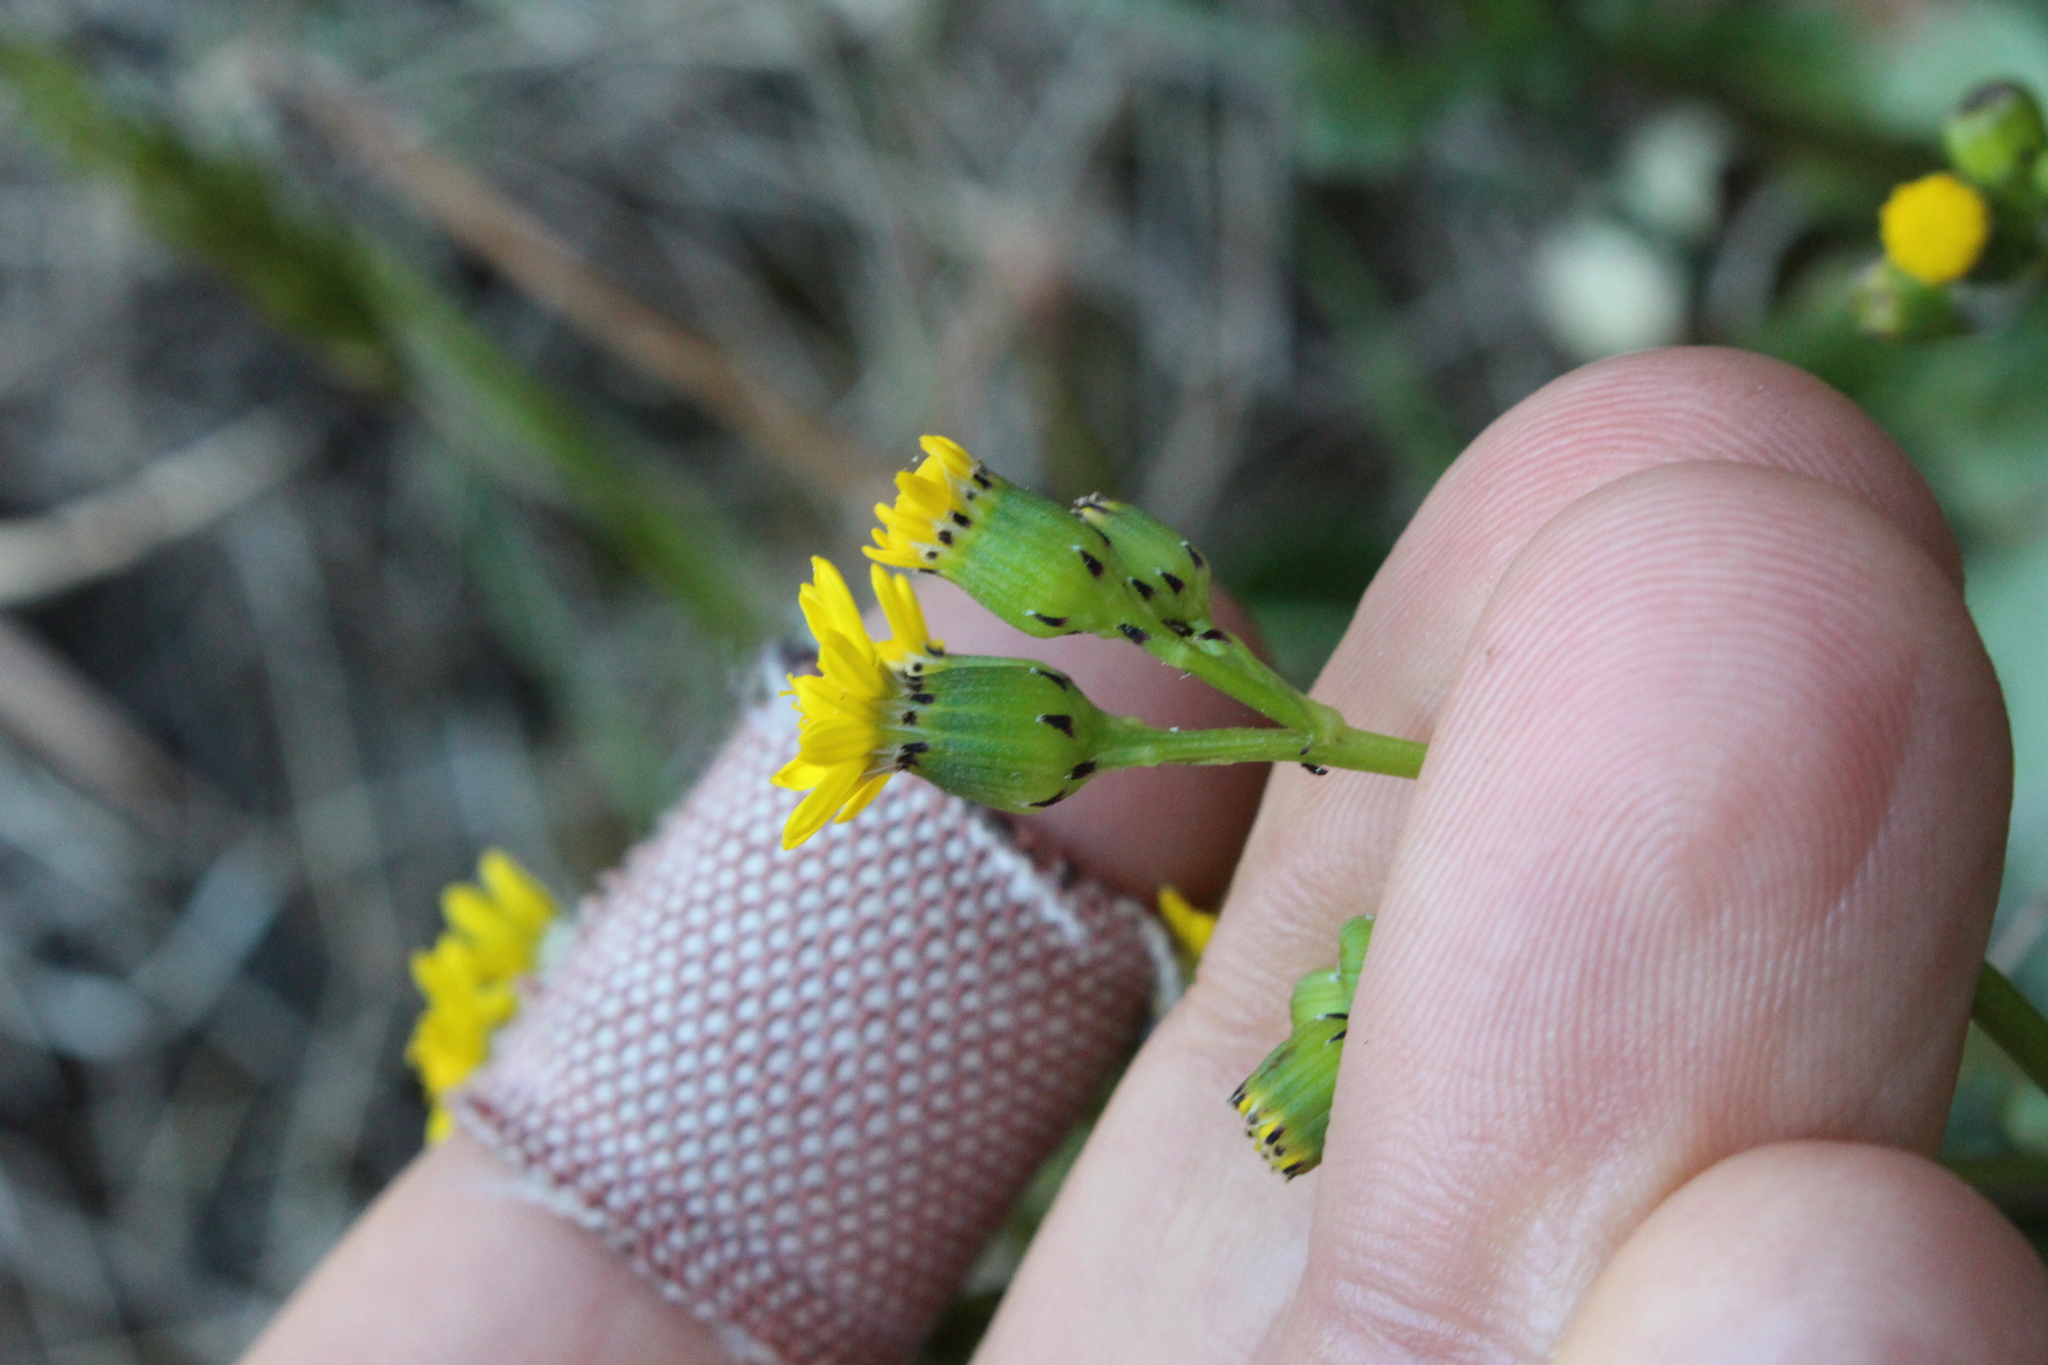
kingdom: Plantae
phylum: Tracheophyta
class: Magnoliopsida
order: Asterales
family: Asteraceae
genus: Senecio
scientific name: Senecio matatini
